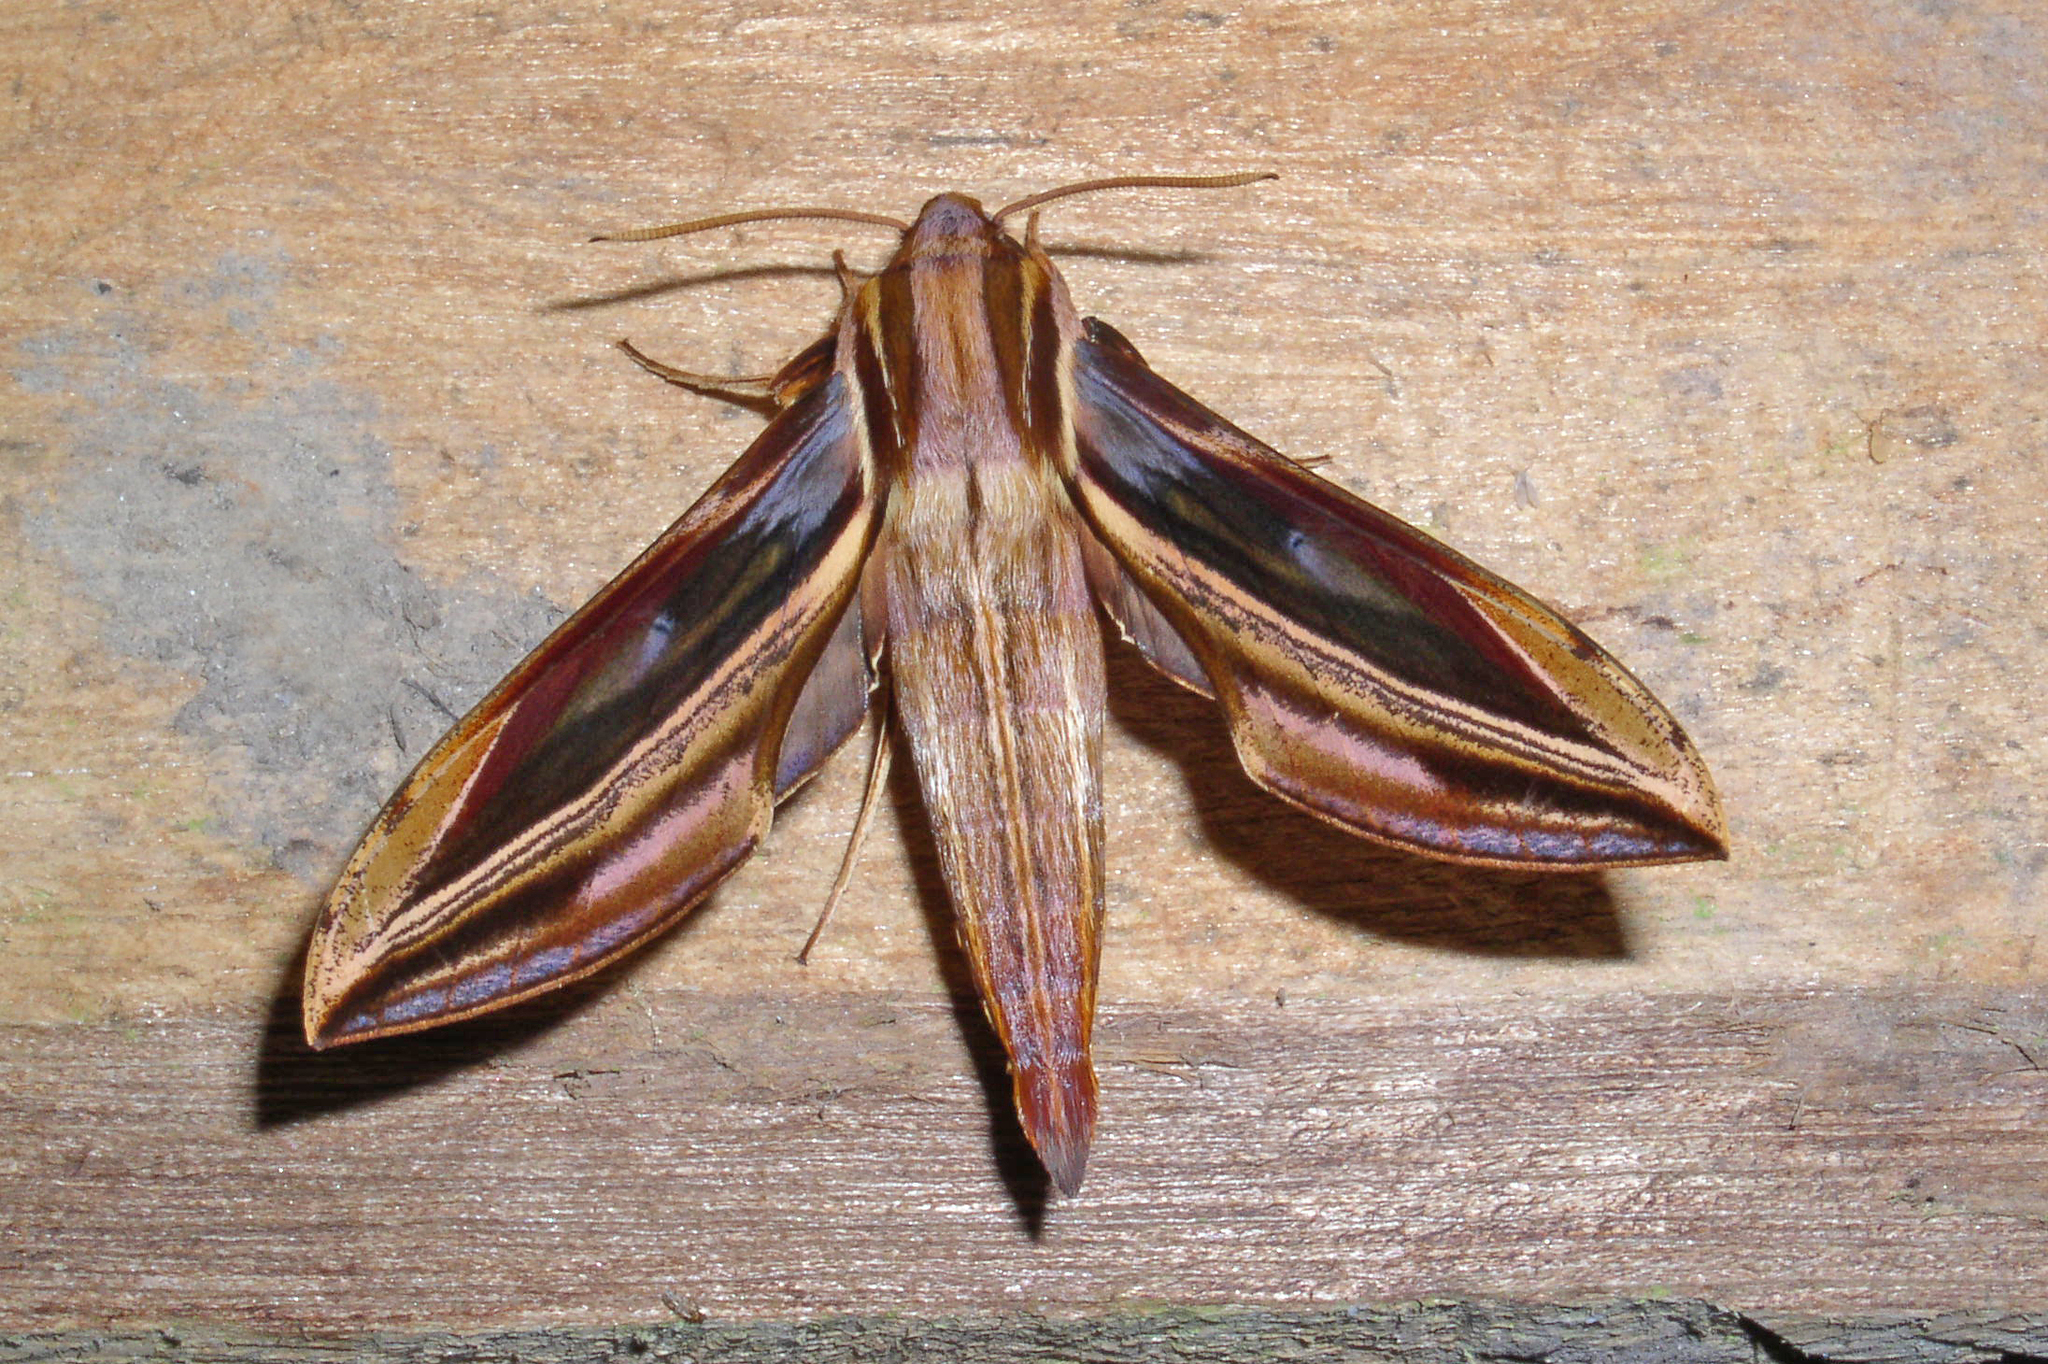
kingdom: Animalia
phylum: Arthropoda
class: Insecta
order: Lepidoptera
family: Sphingidae
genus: Xylophanes
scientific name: Xylophanes pyrrhus
